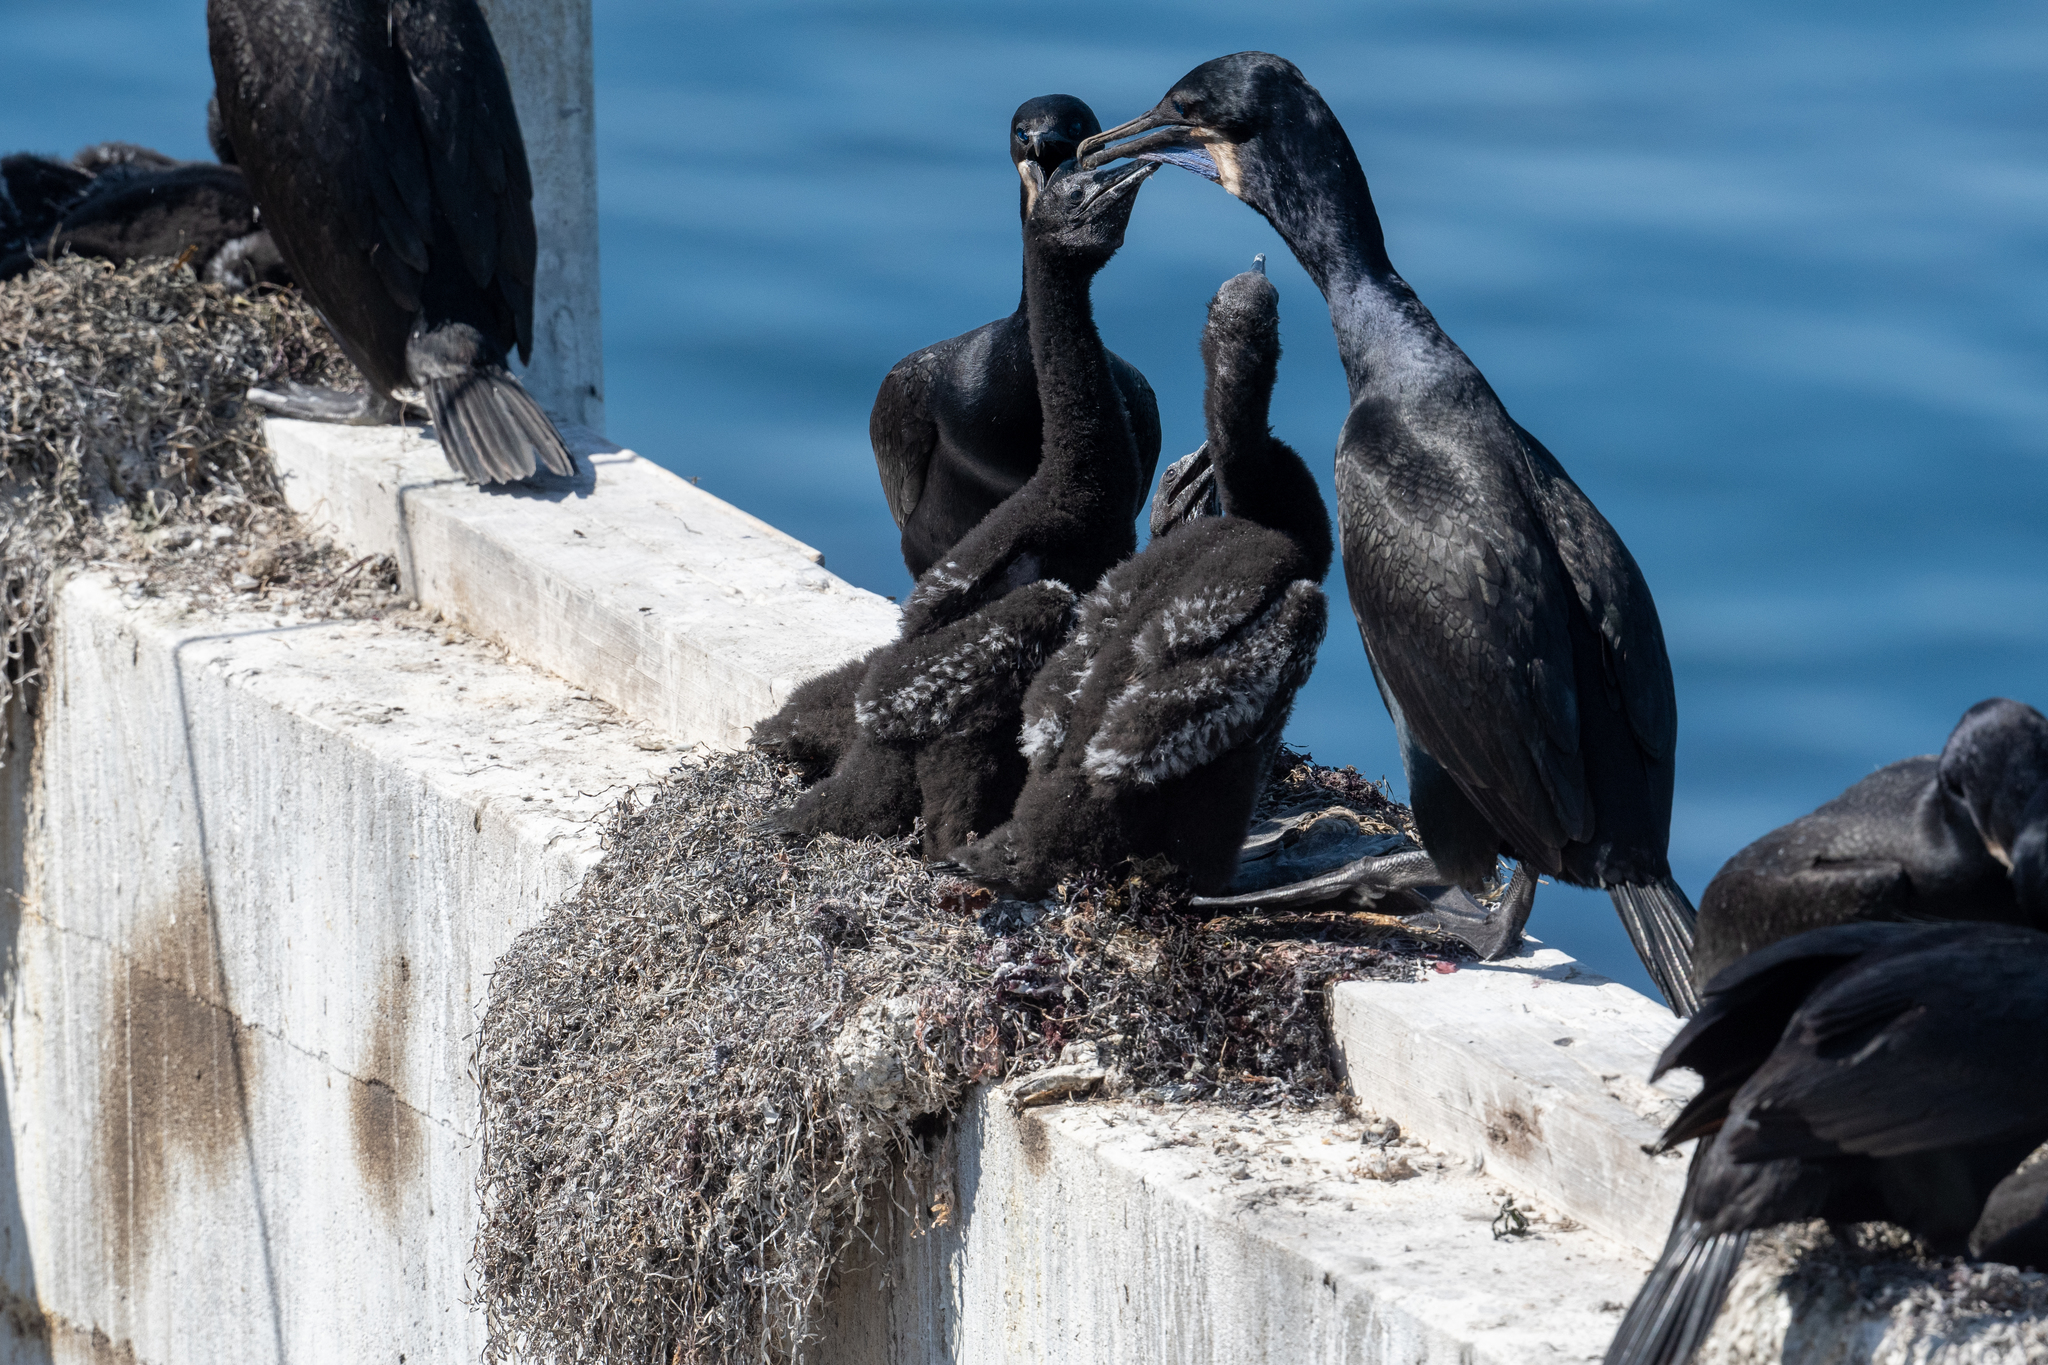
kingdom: Animalia
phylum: Chordata
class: Aves
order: Suliformes
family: Phalacrocoracidae
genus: Urile
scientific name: Urile penicillatus
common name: Brandt's cormorant
